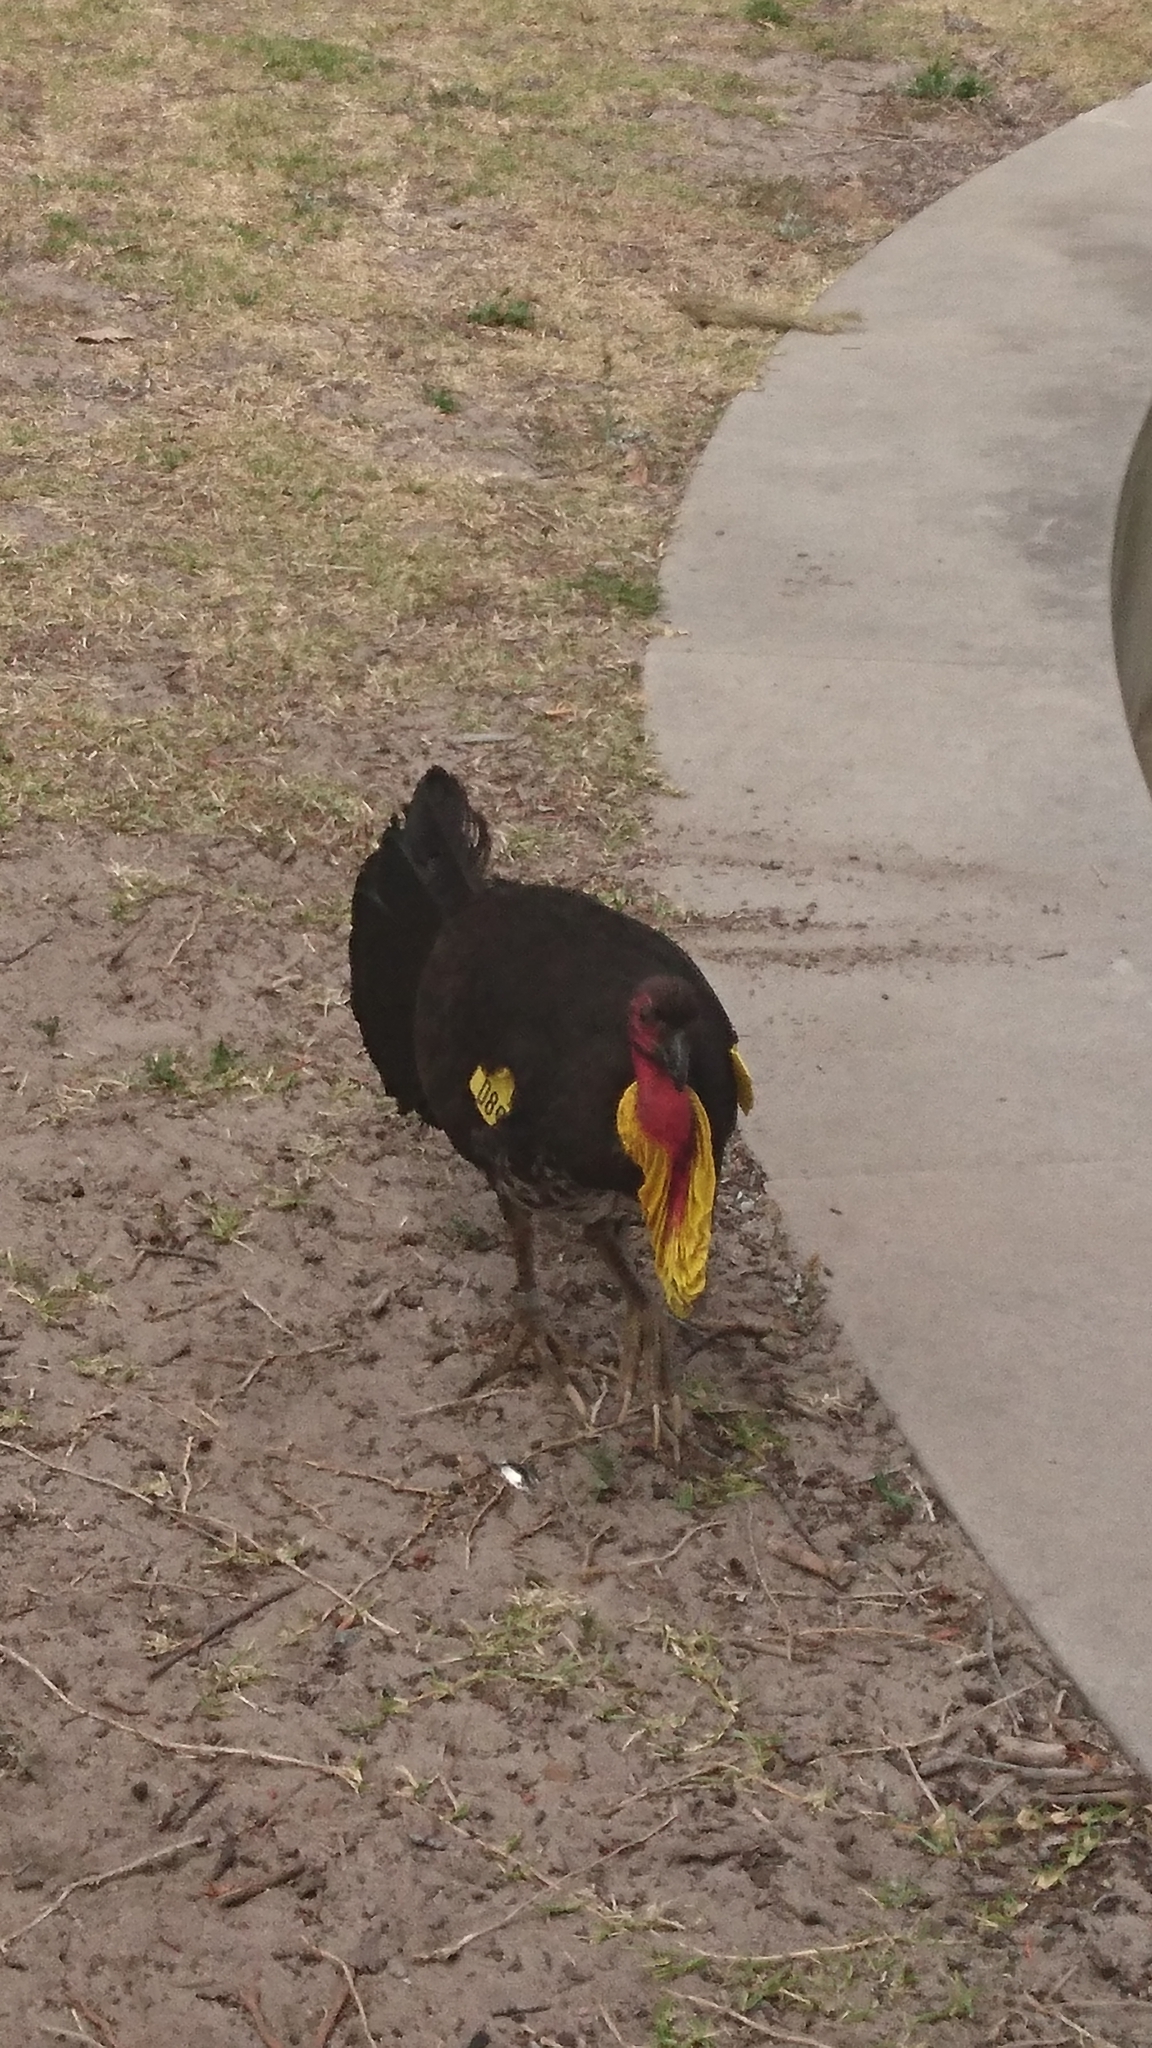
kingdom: Animalia
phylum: Chordata
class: Aves
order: Galliformes
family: Megapodiidae
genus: Alectura
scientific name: Alectura lathami
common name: Australian brushturkey
